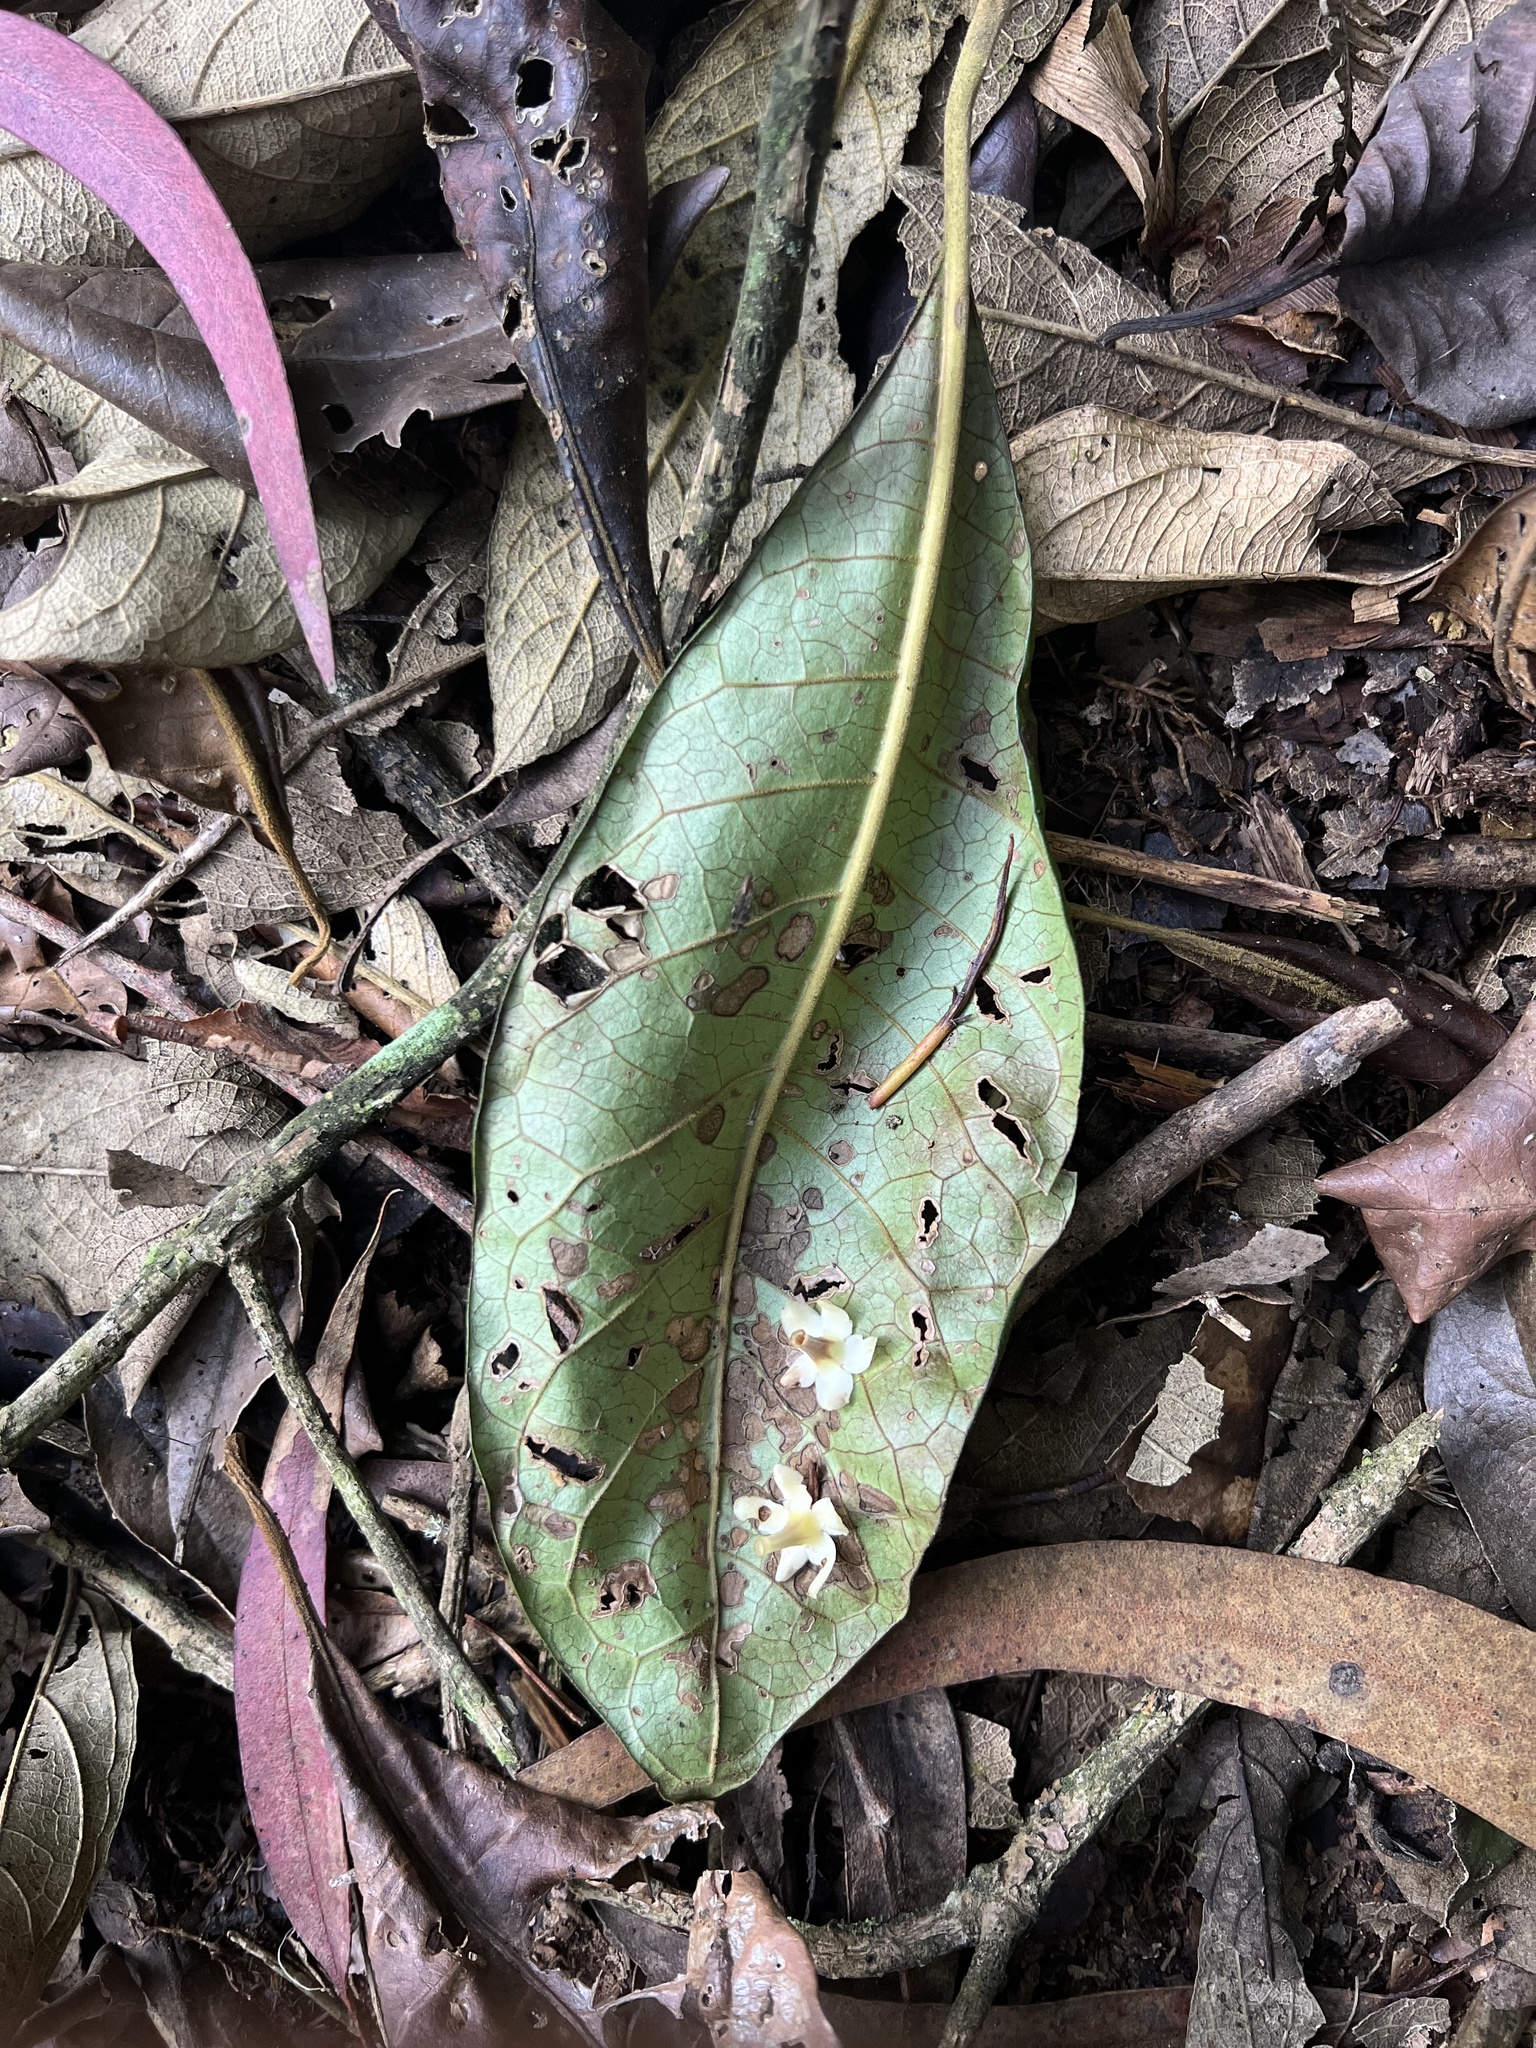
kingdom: Plantae
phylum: Tracheophyta
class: Magnoliopsida
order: Lamiales
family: Lamiaceae
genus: Aegiphila
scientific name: Aegiphila bogotensis
